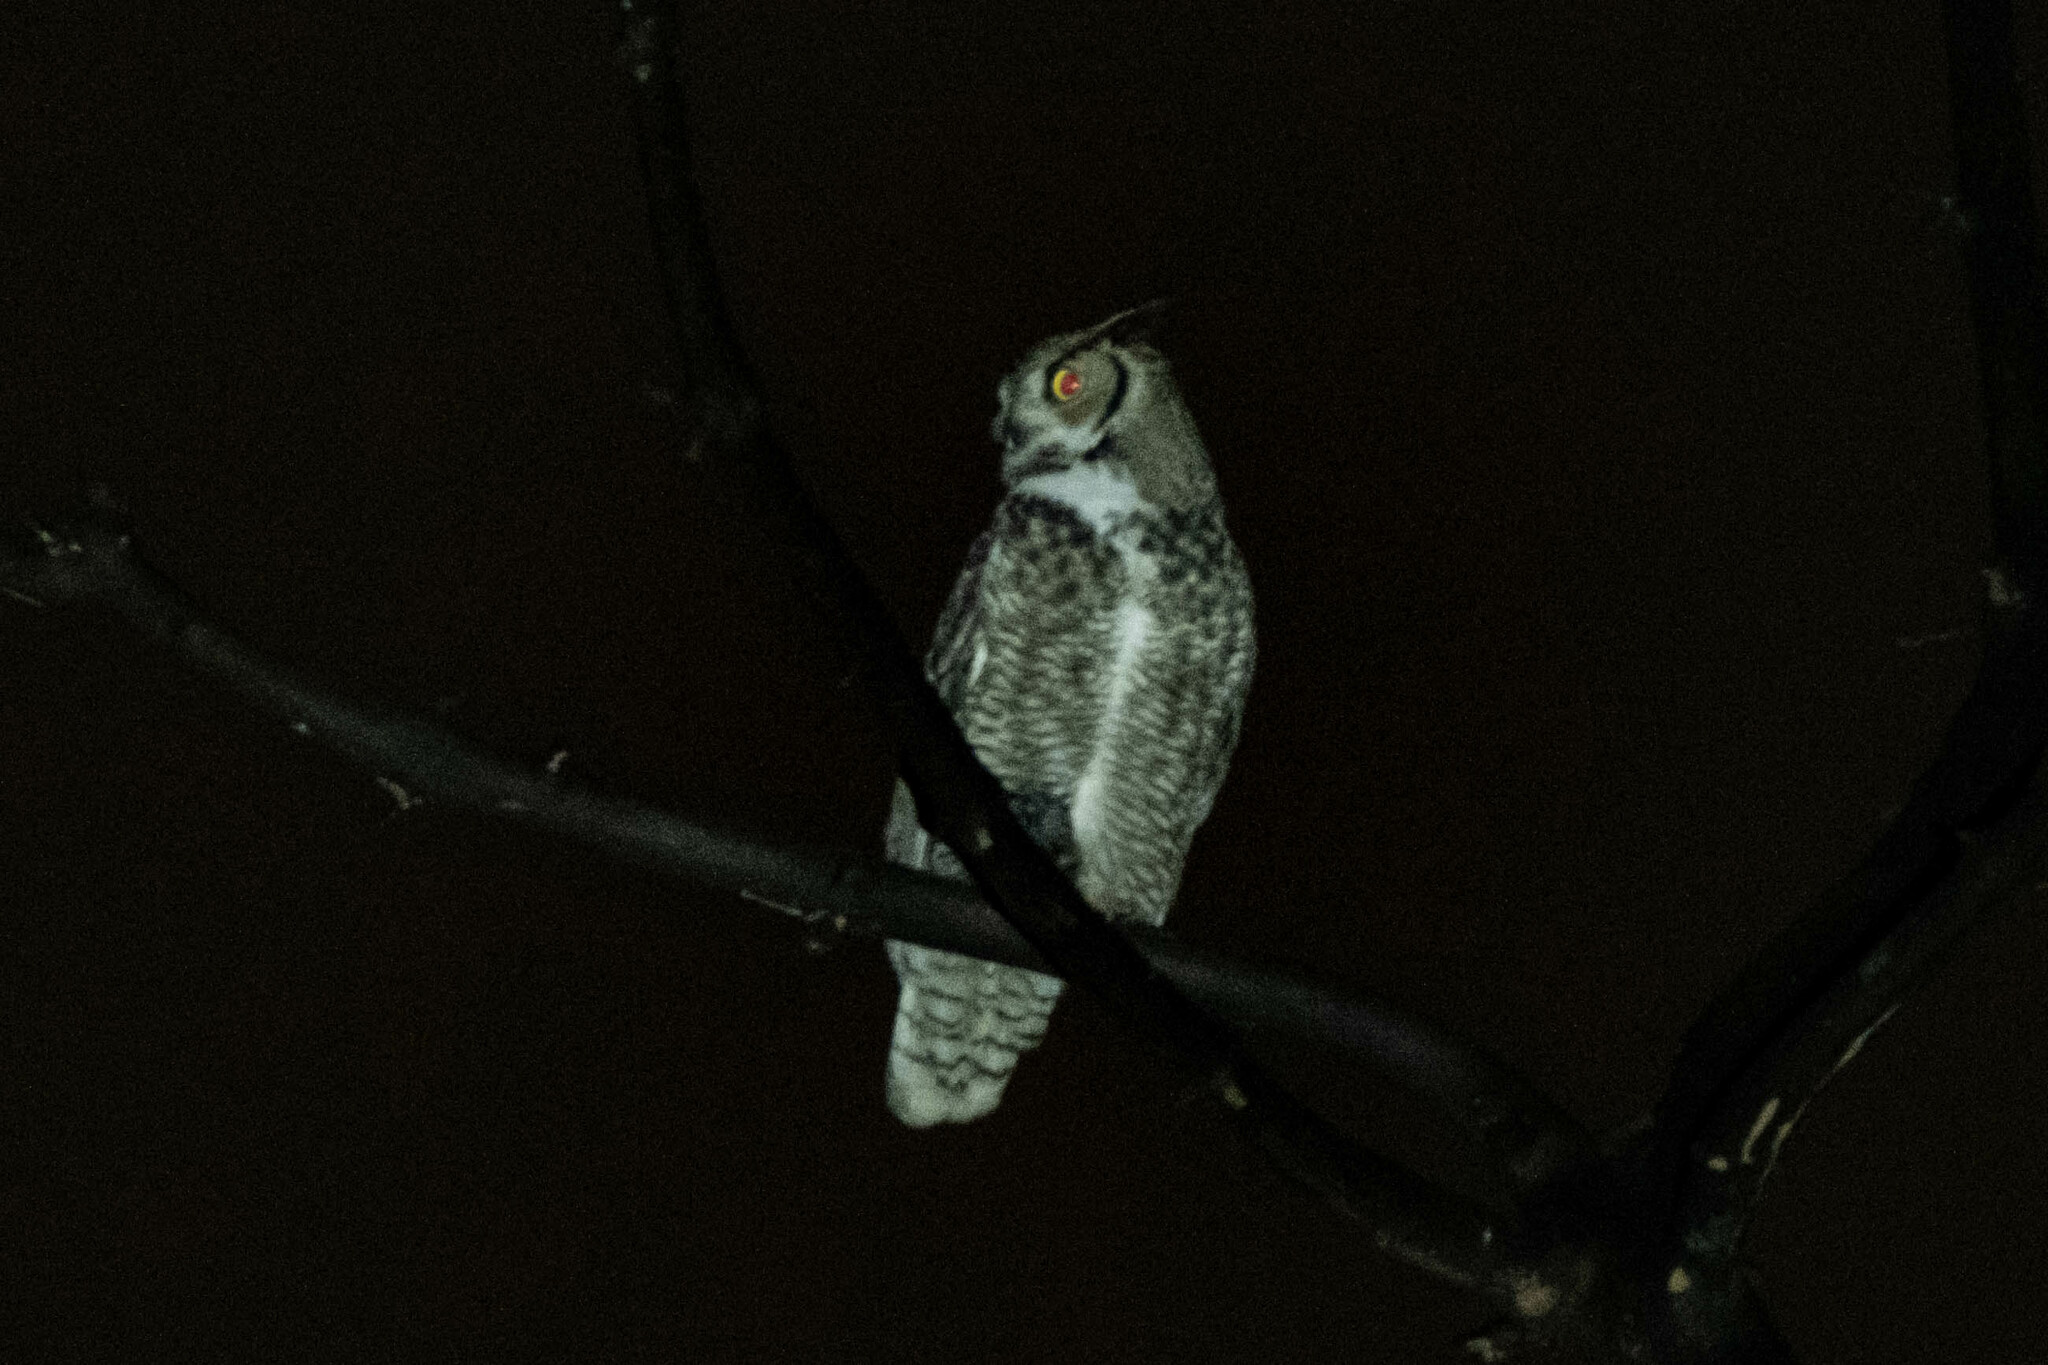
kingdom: Animalia
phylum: Chordata
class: Aves
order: Strigiformes
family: Strigidae
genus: Bubo
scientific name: Bubo virginianus
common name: Great horned owl
